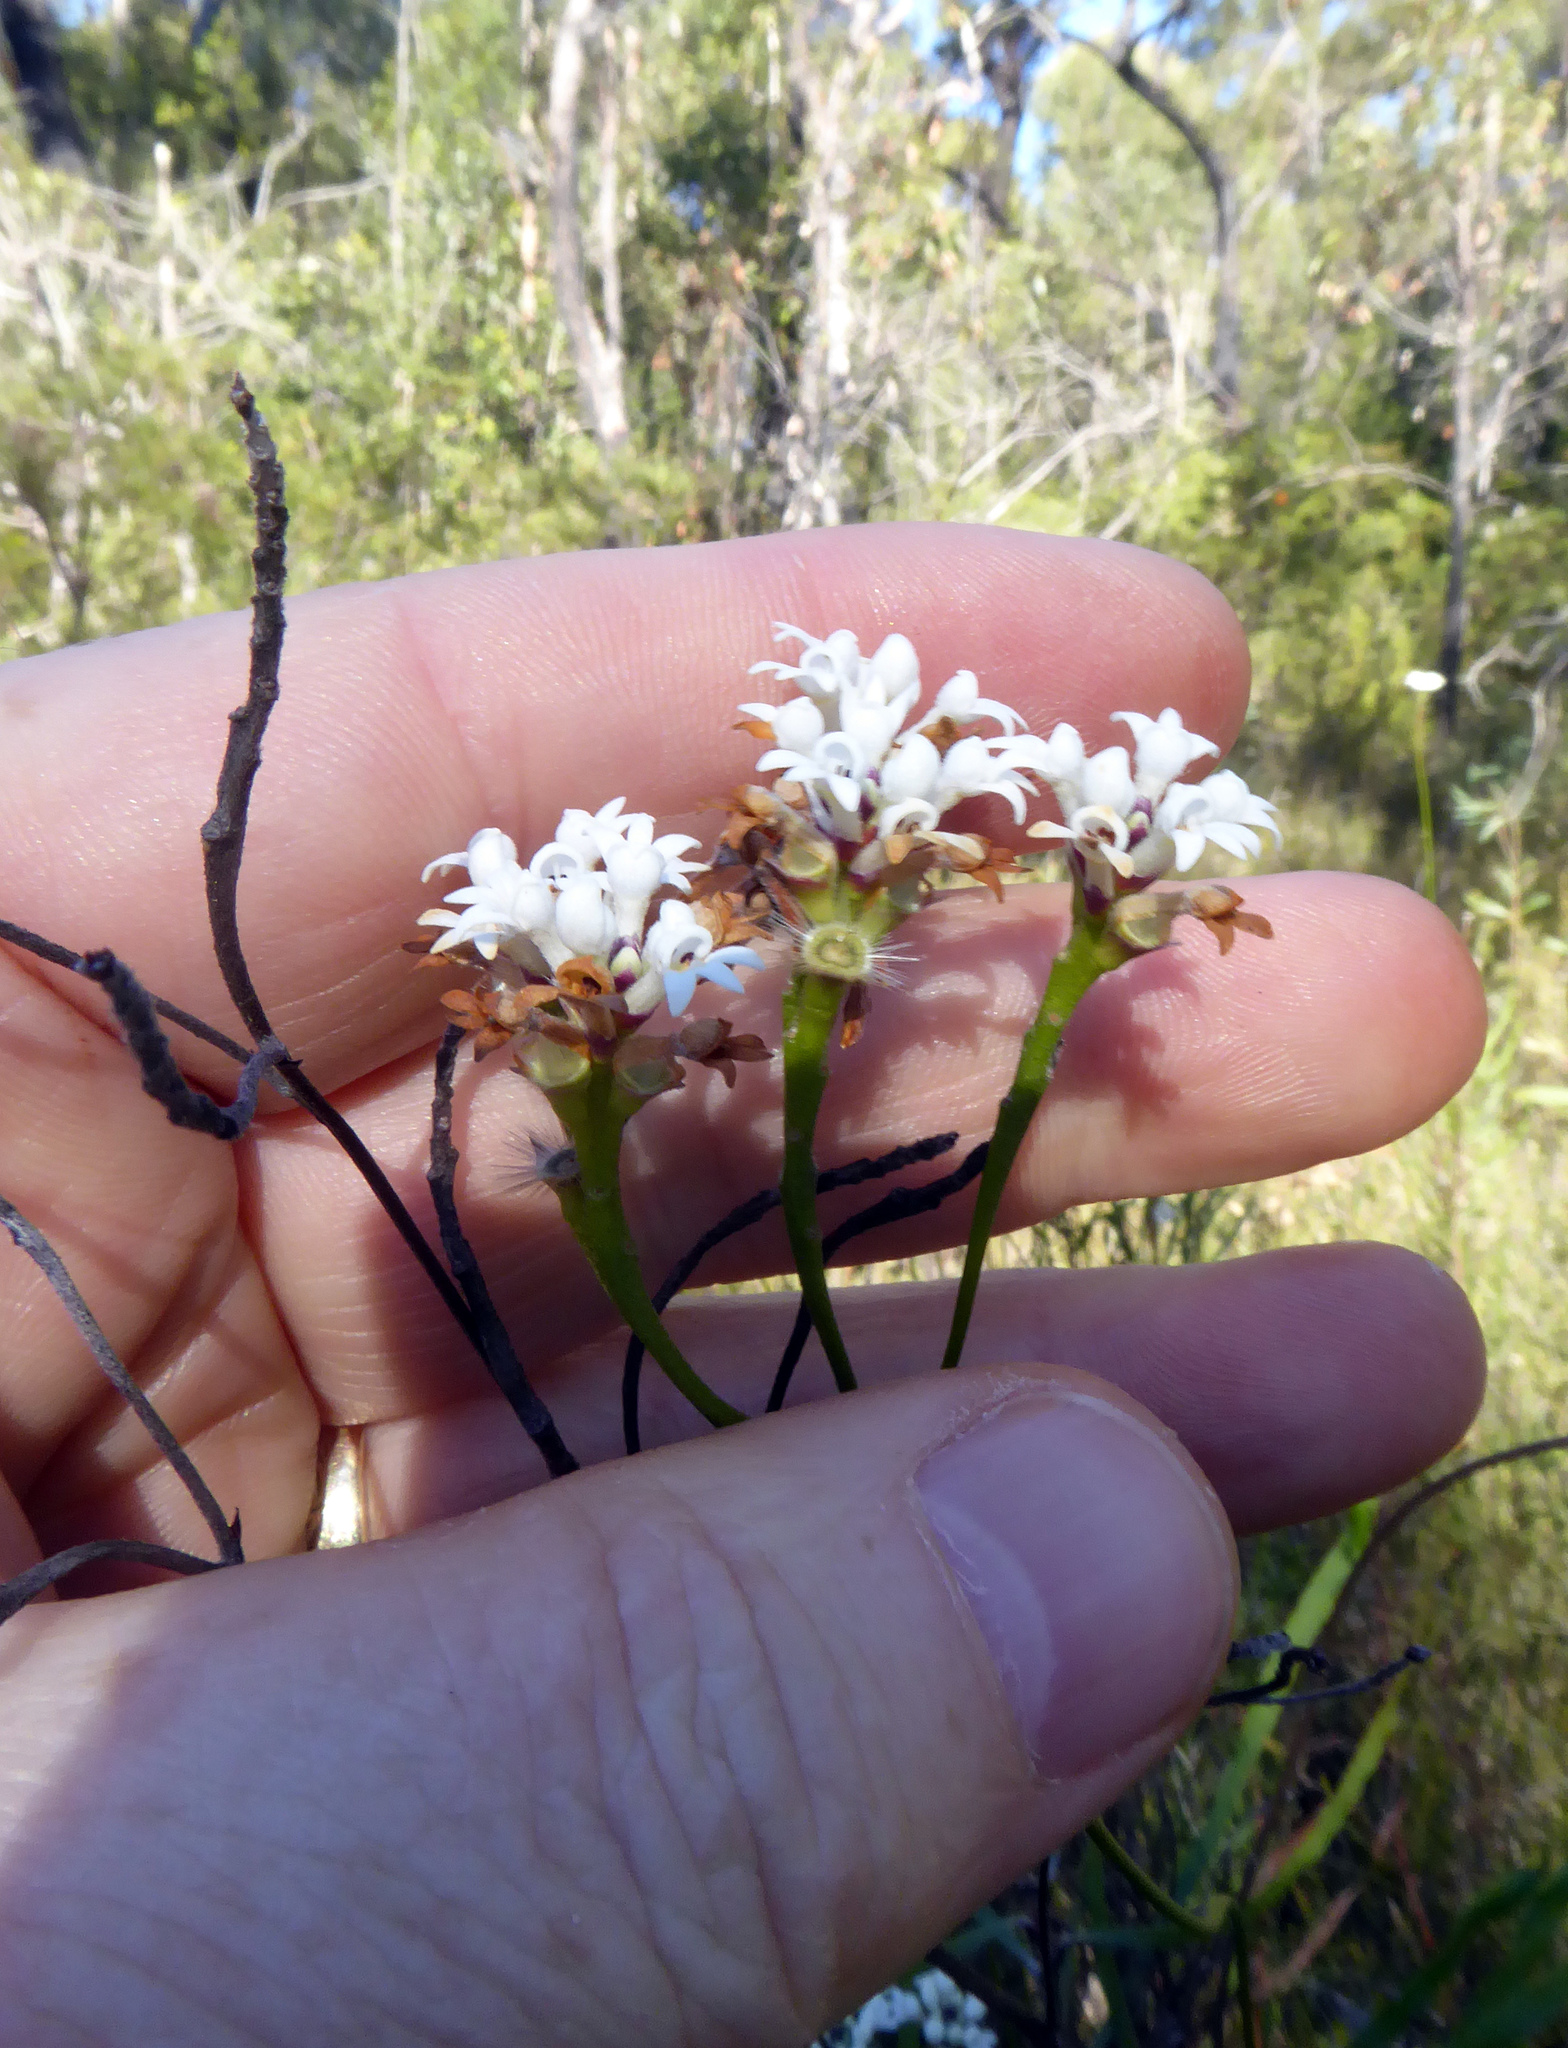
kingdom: Plantae
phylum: Tracheophyta
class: Magnoliopsida
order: Proteales
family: Proteaceae
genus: Conospermum
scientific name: Conospermum longifolium
